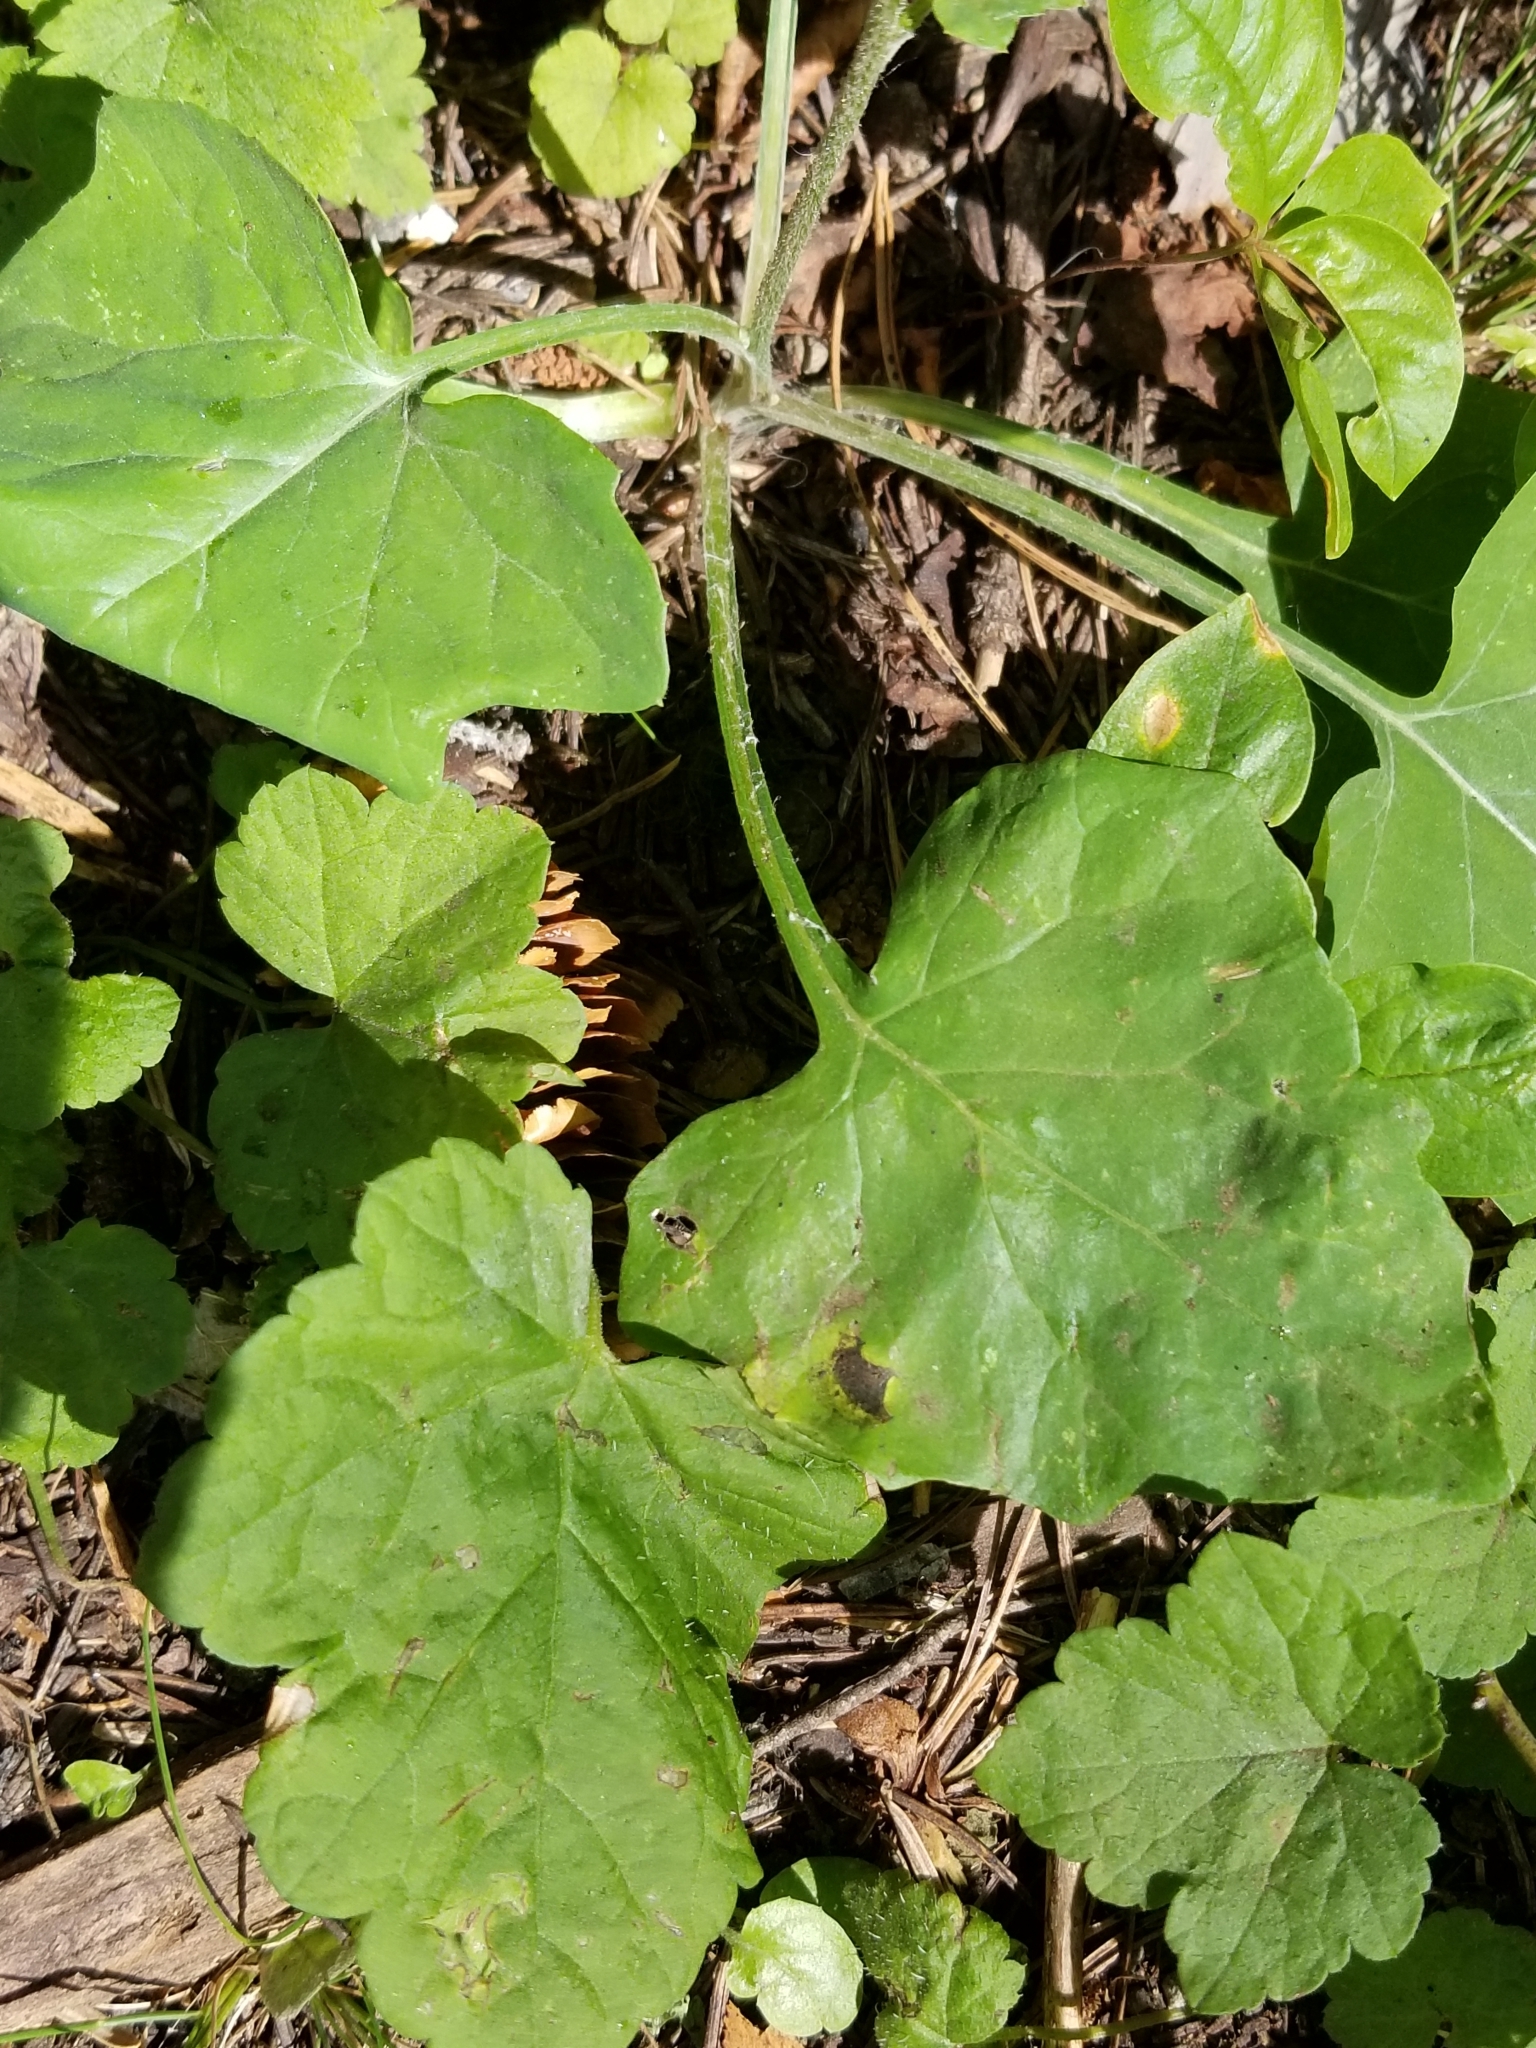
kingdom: Plantae
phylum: Tracheophyta
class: Magnoliopsida
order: Asterales
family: Asteraceae
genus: Adenocaulon
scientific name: Adenocaulon bicolor
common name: Trailplant
